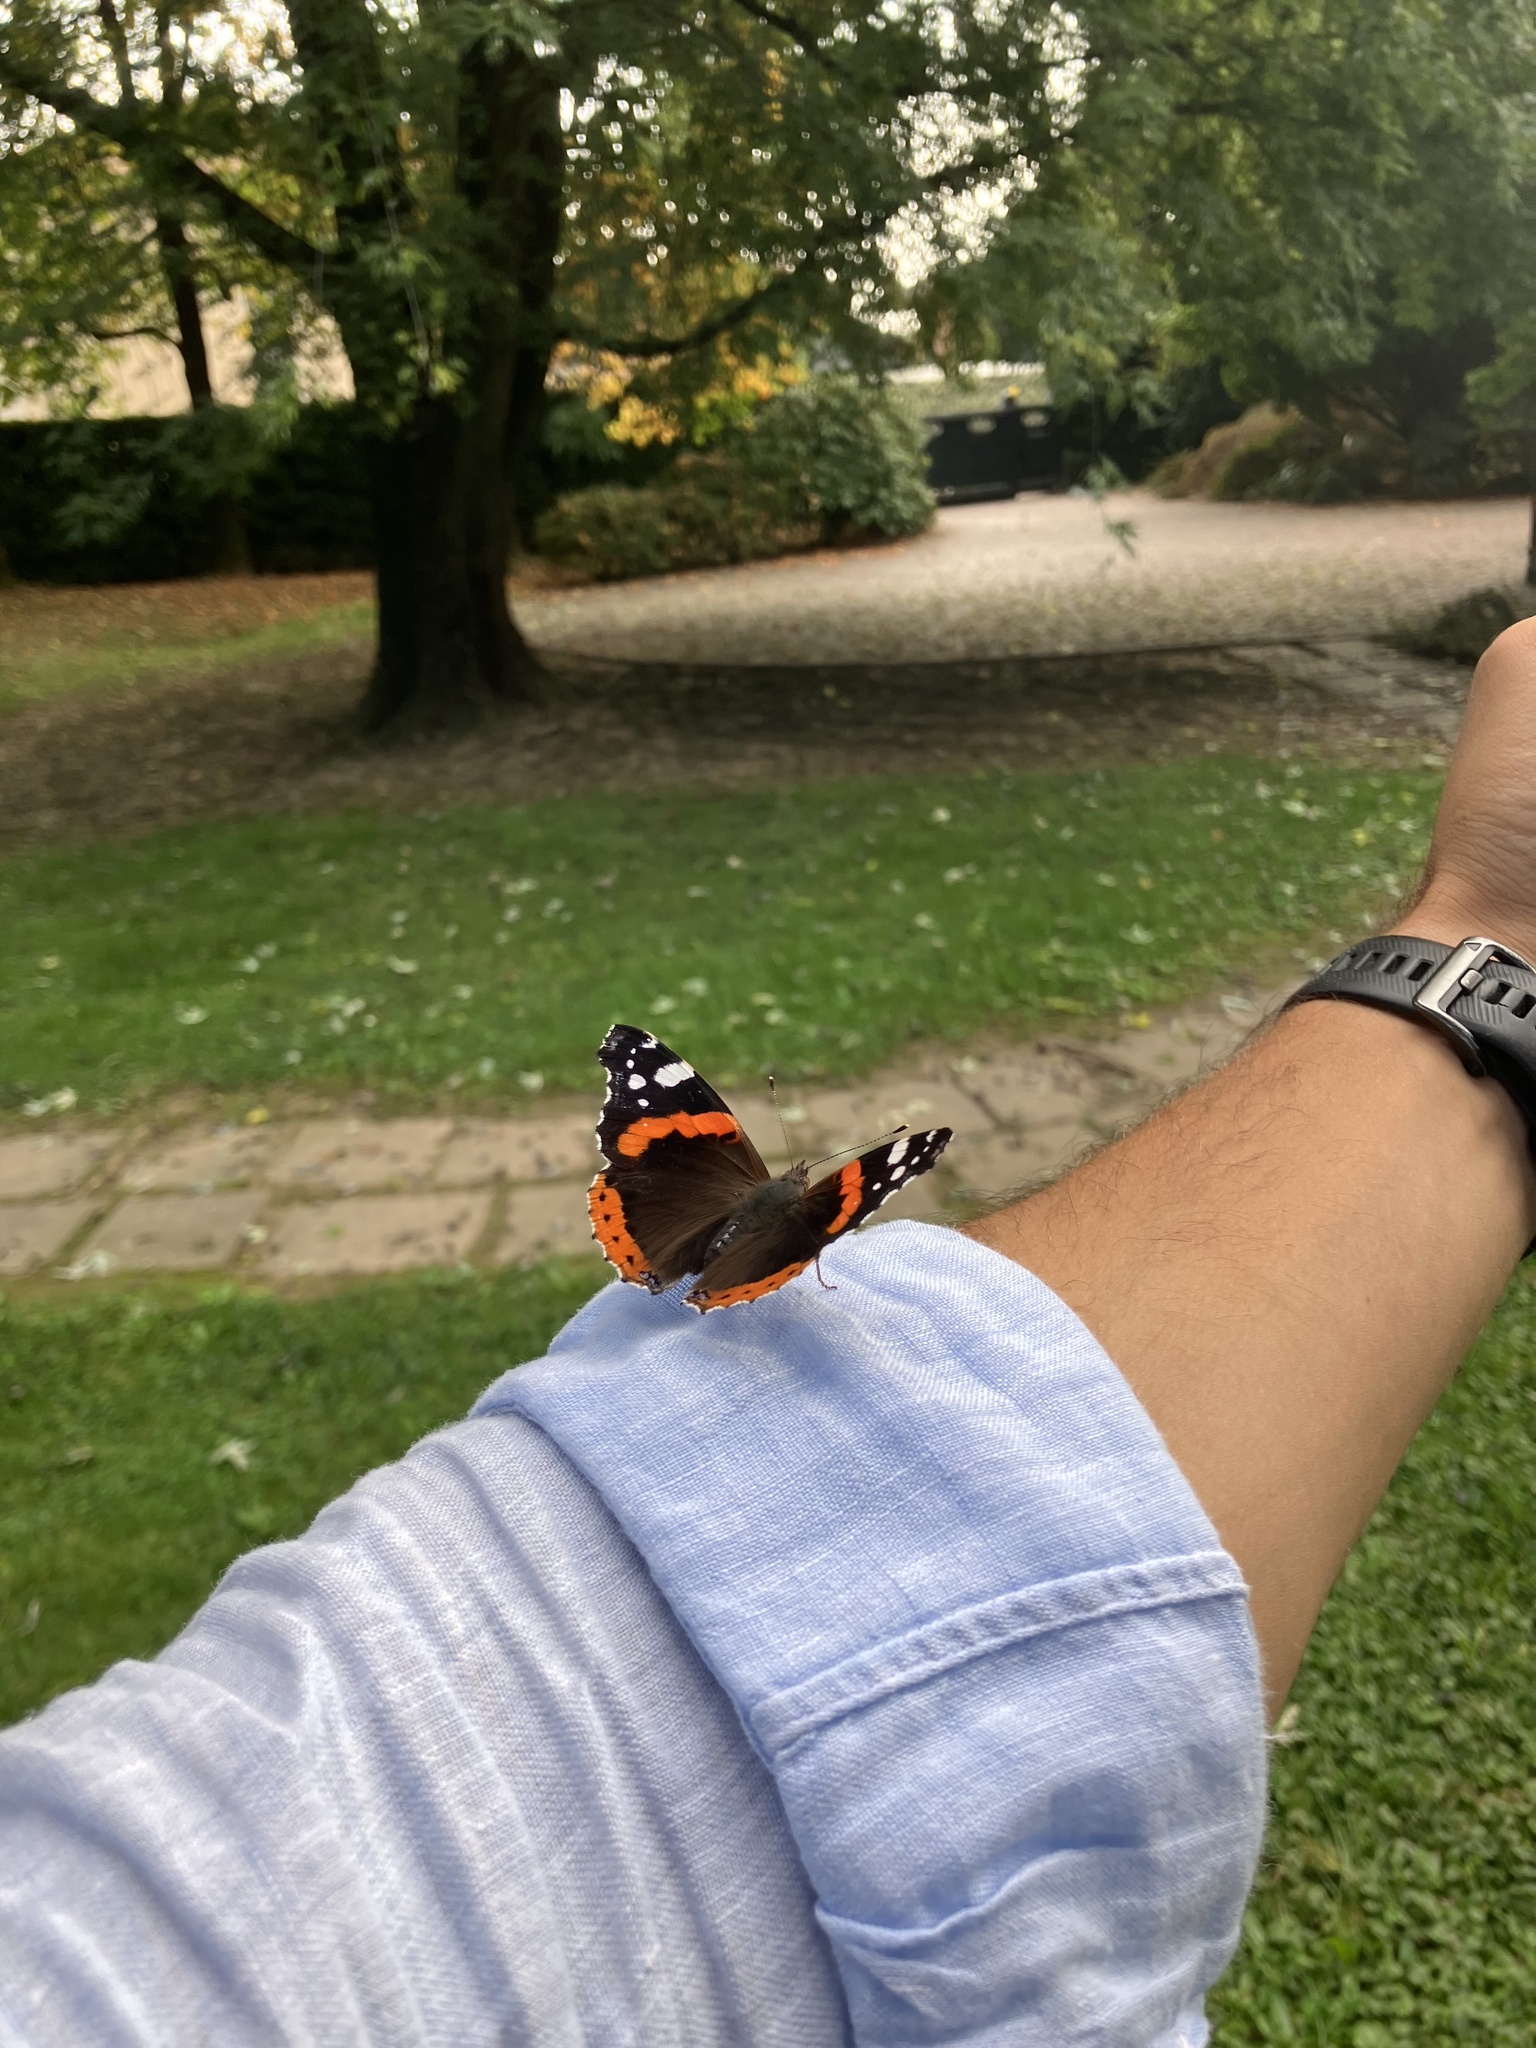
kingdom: Animalia
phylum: Arthropoda
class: Insecta
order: Lepidoptera
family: Nymphalidae
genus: Vanessa
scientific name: Vanessa atalanta
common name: Red admiral
